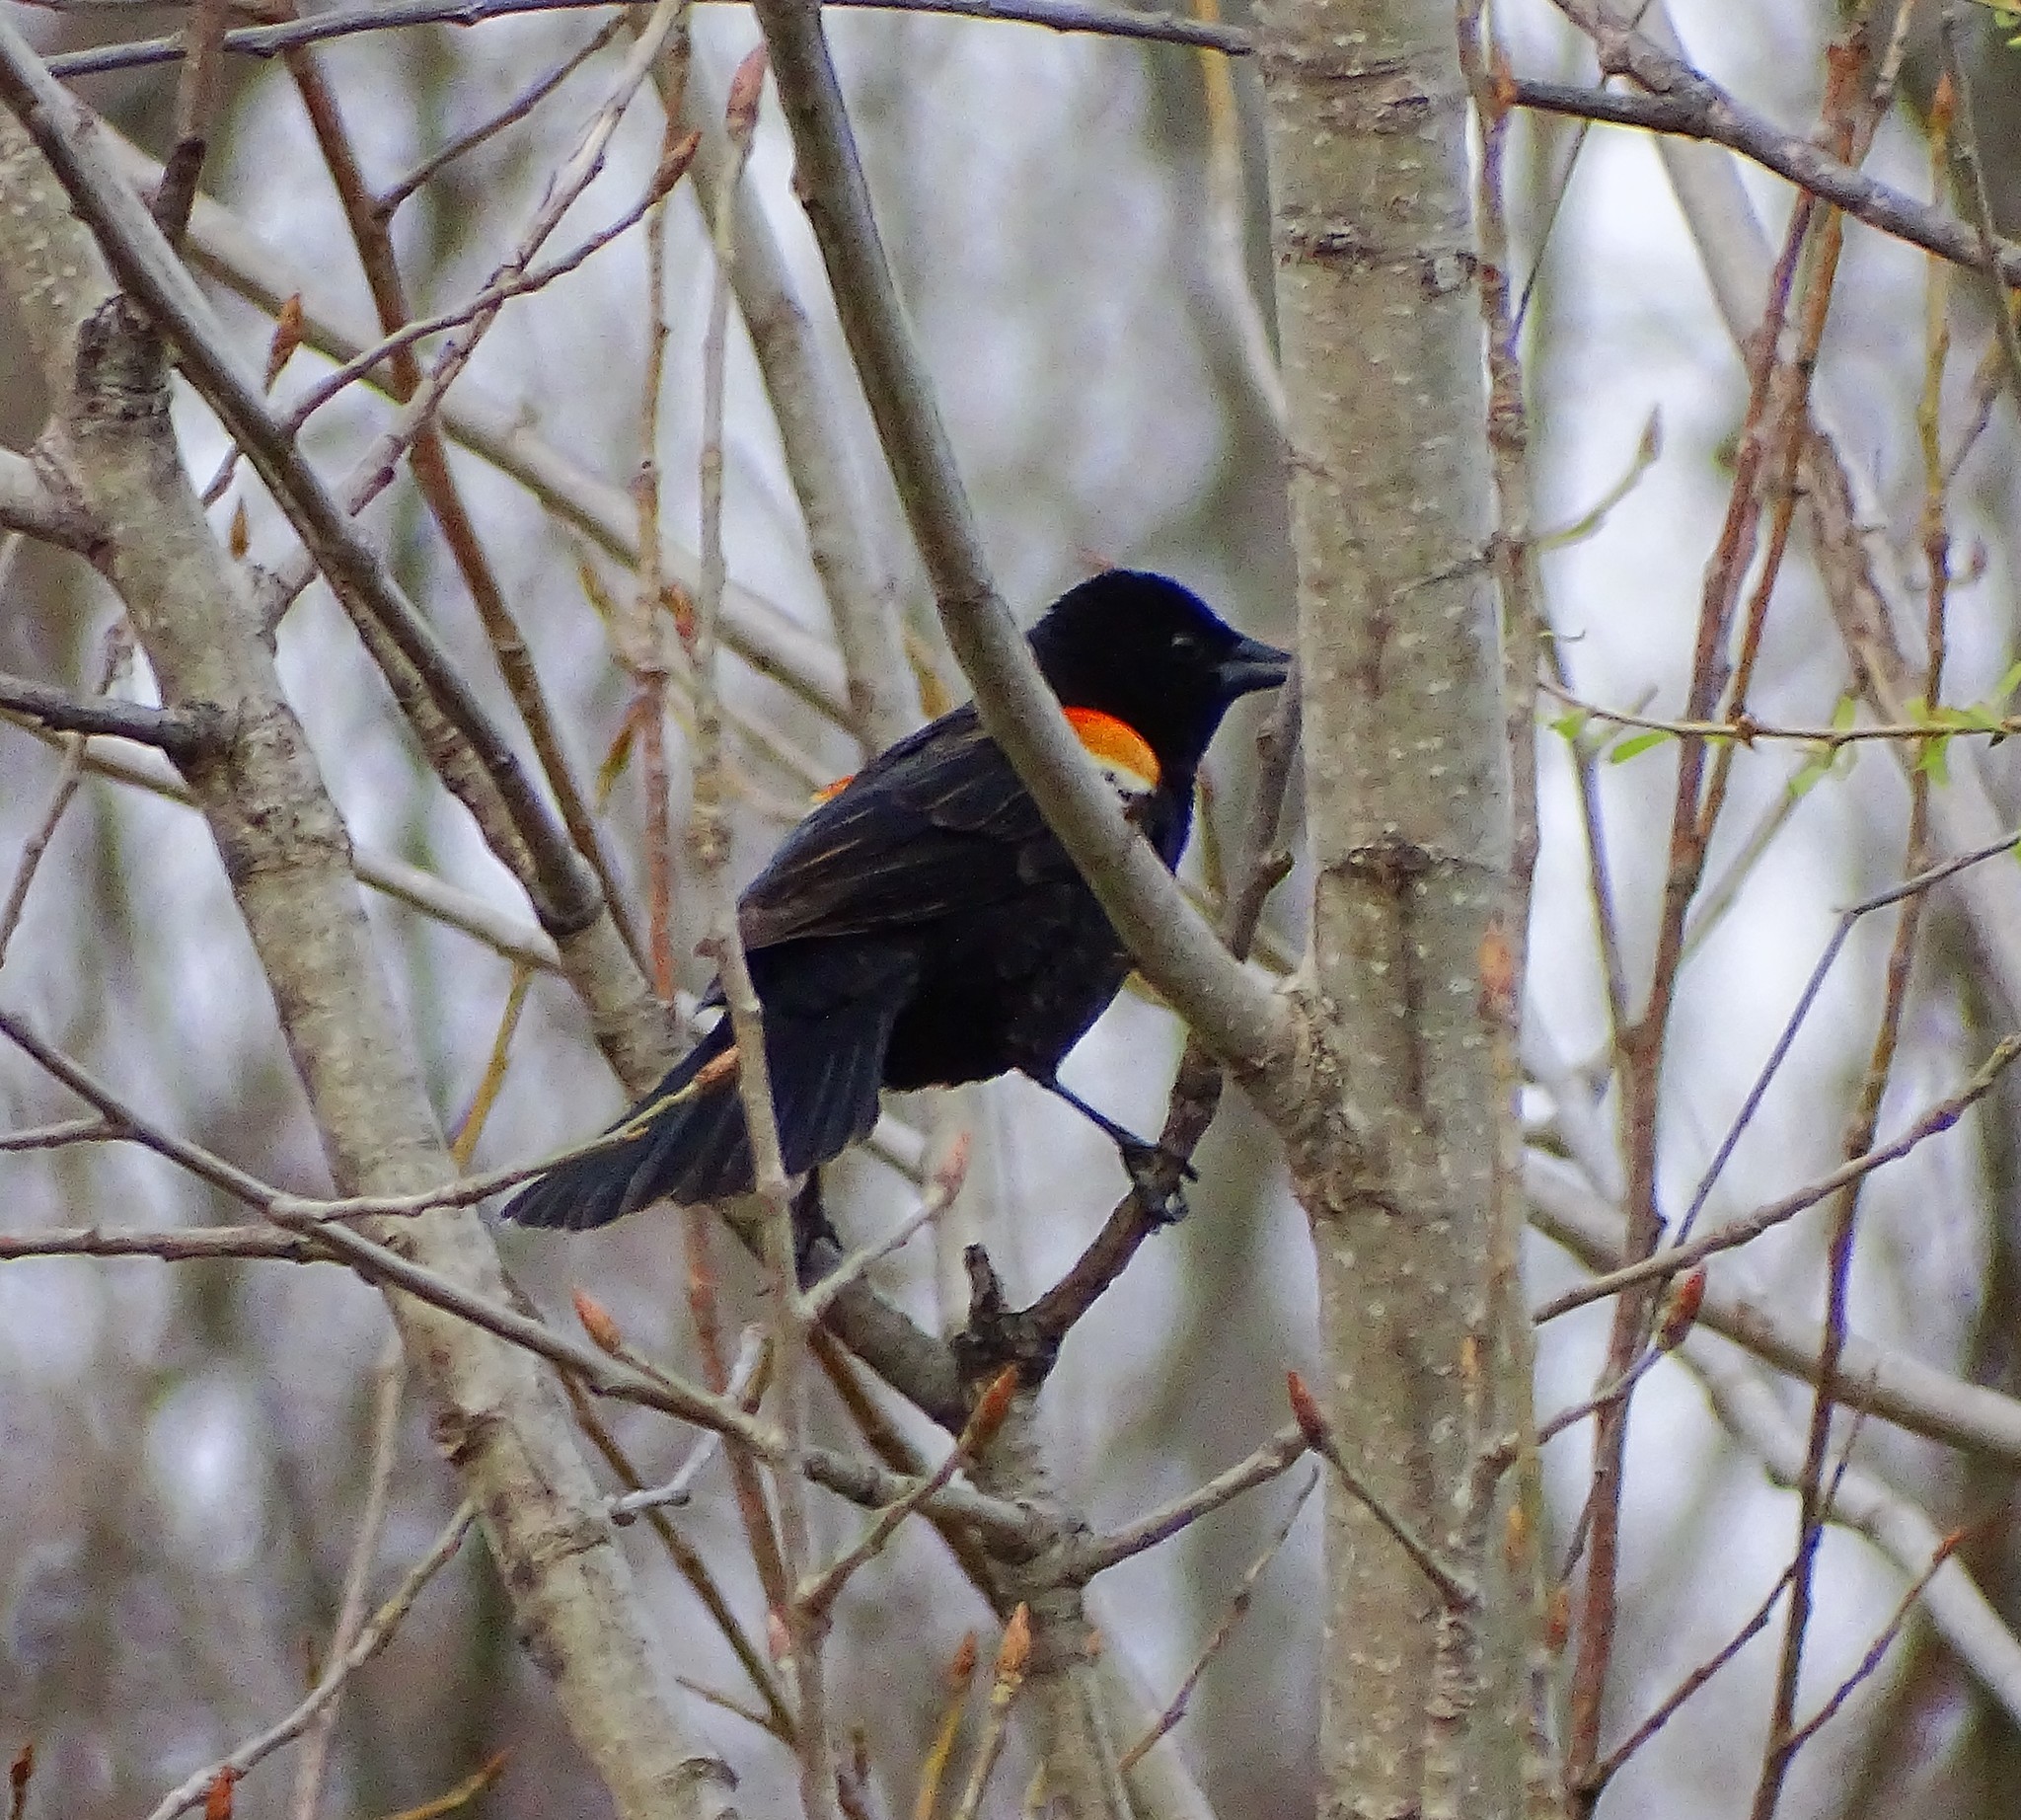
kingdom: Animalia
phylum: Chordata
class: Aves
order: Passeriformes
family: Icteridae
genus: Agelaius
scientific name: Agelaius phoeniceus
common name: Red-winged blackbird
